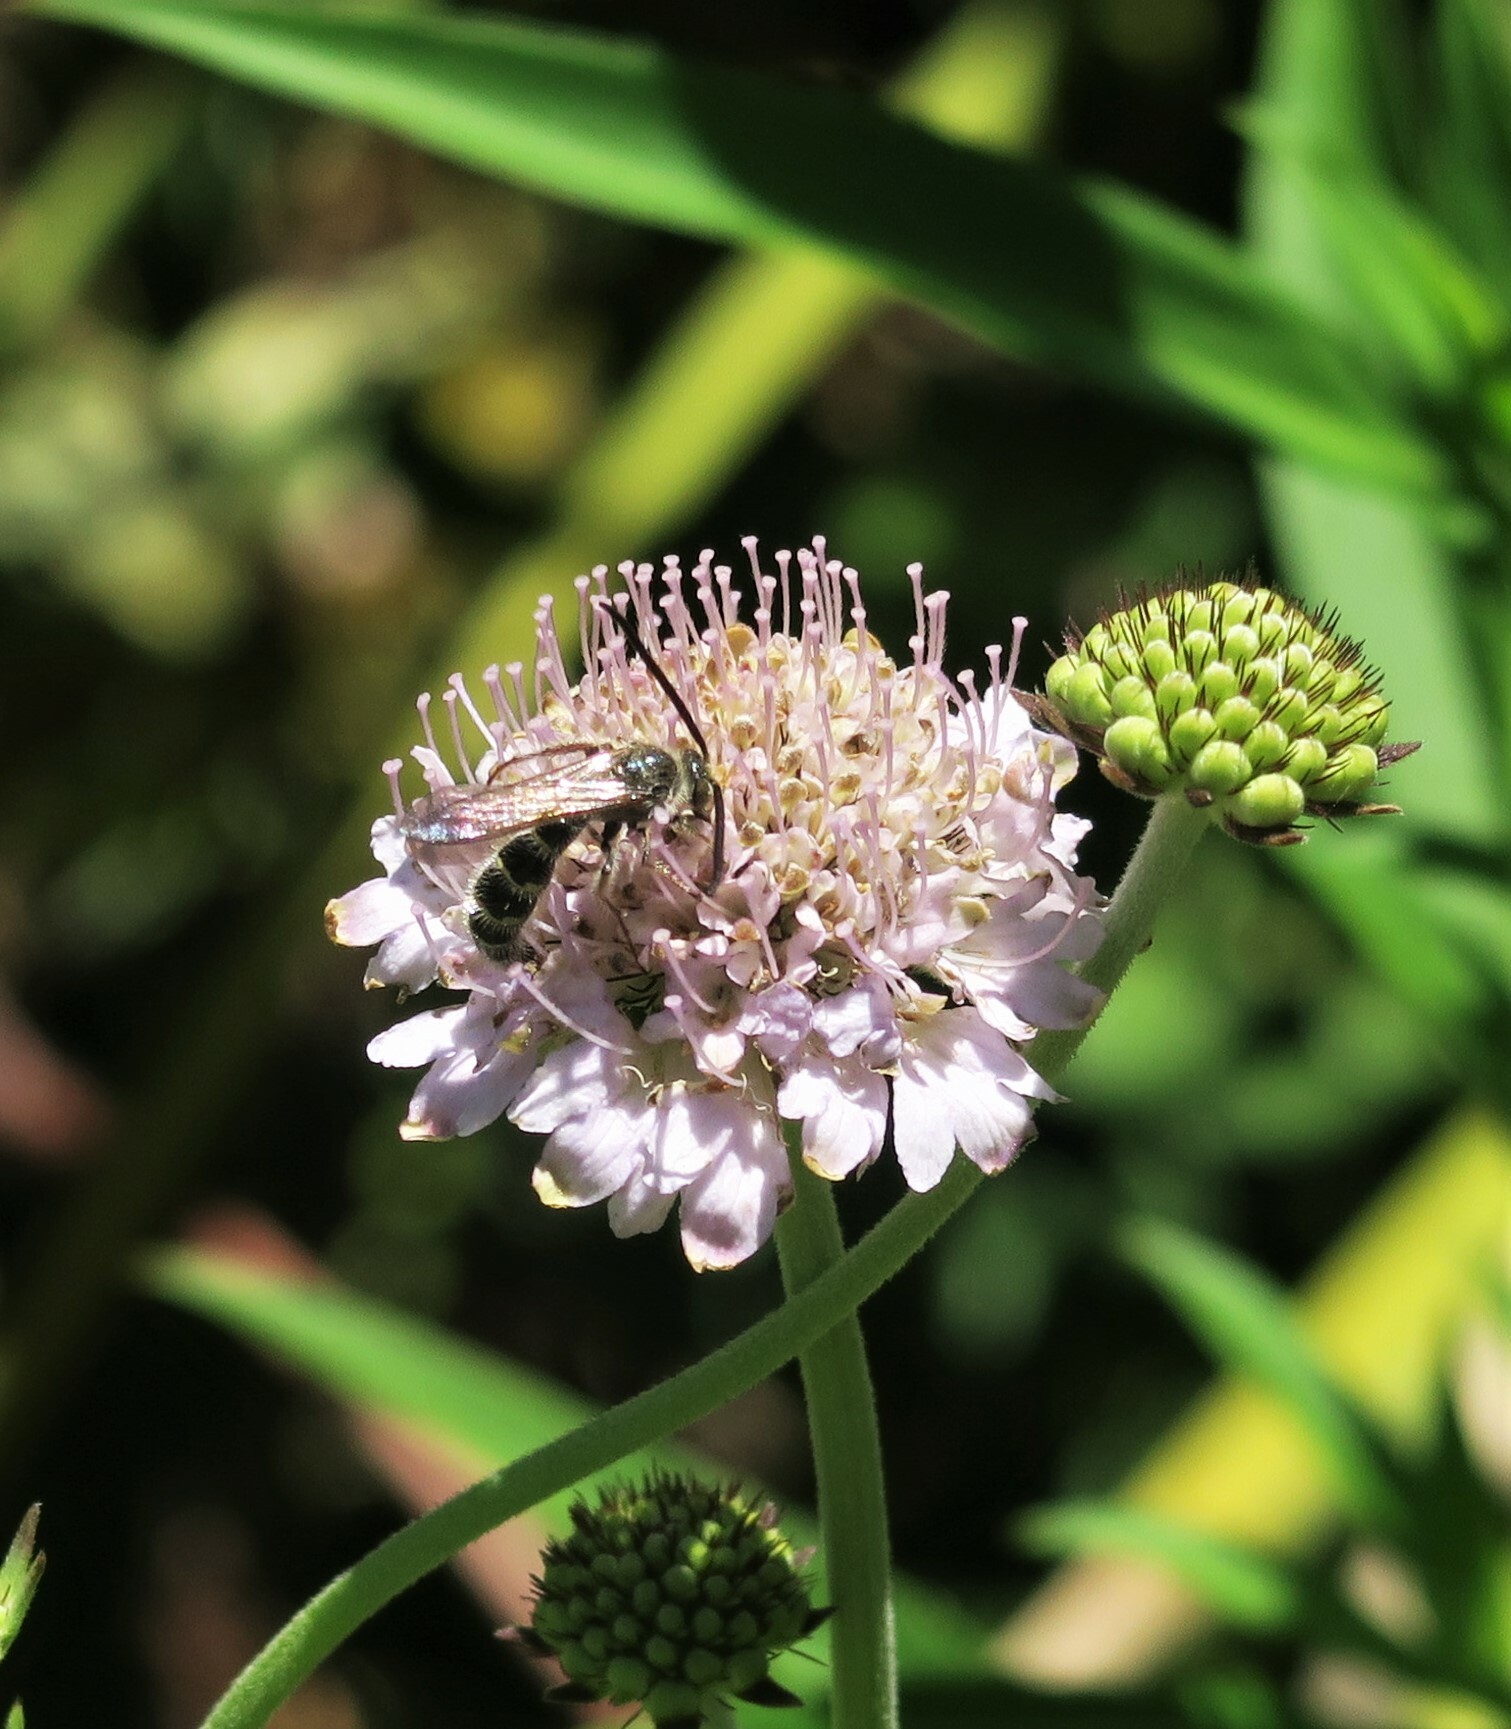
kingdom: Animalia
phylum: Arthropoda
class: Insecta
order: Hymenoptera
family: Scoliidae
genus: Cathimeris
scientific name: Cathimeris
